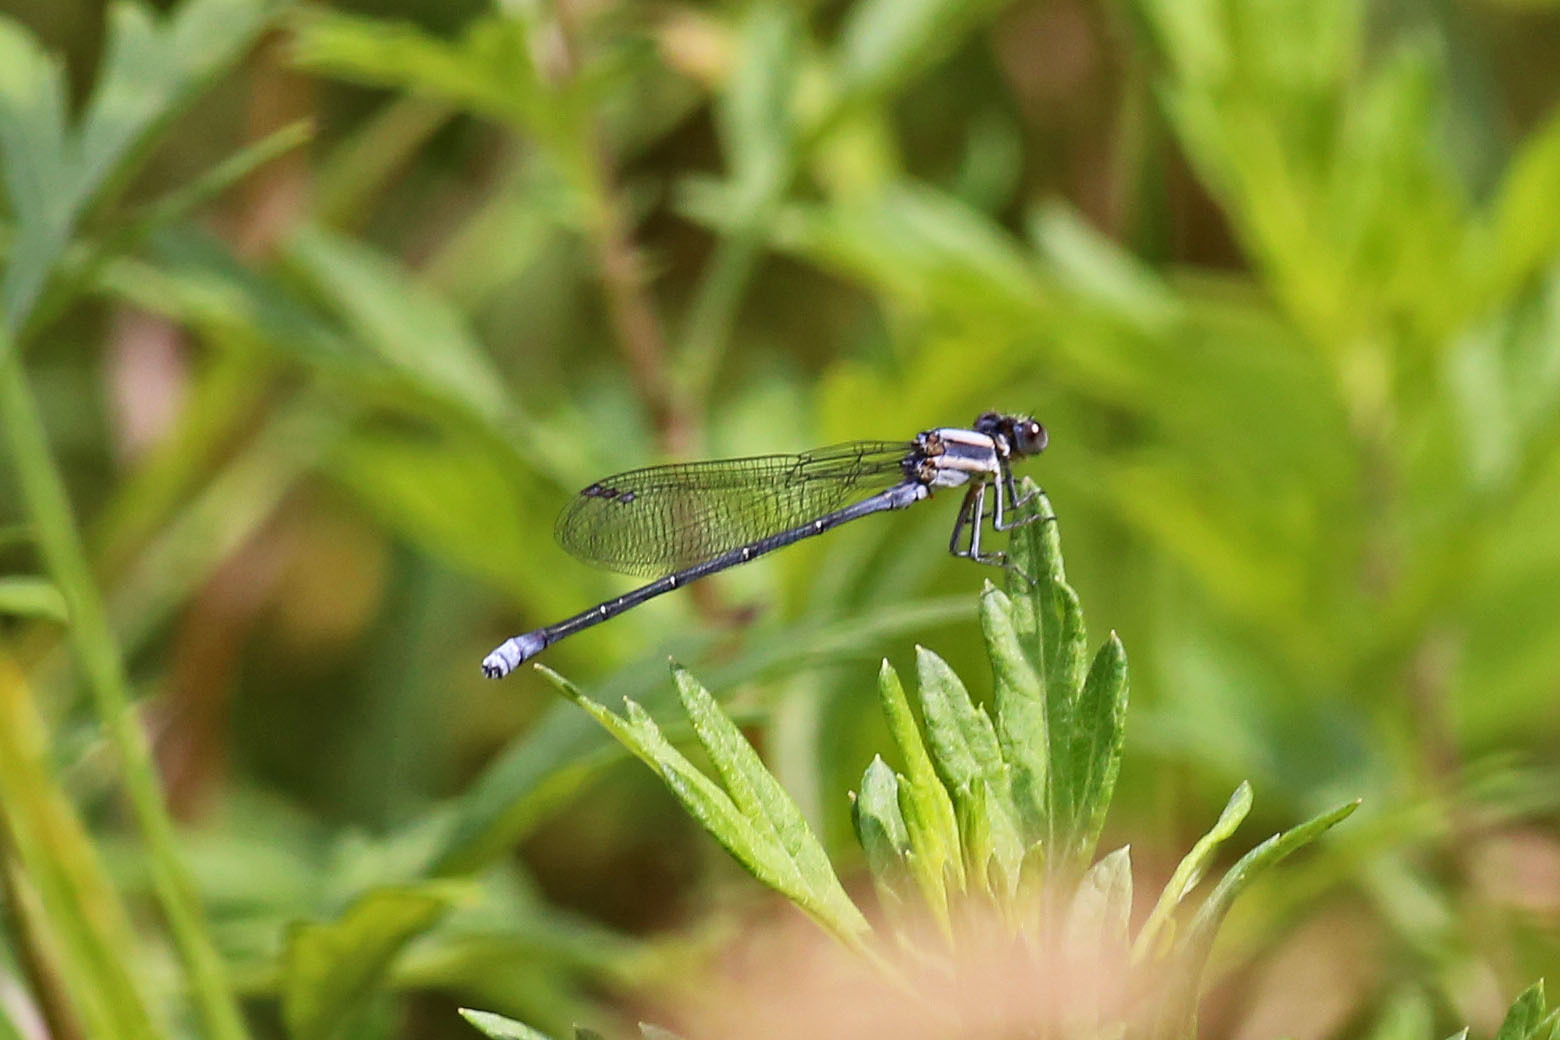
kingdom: Animalia
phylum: Arthropoda
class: Insecta
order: Odonata
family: Coenagrionidae
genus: Argia
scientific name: Argia moesta
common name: Powdered dancer
